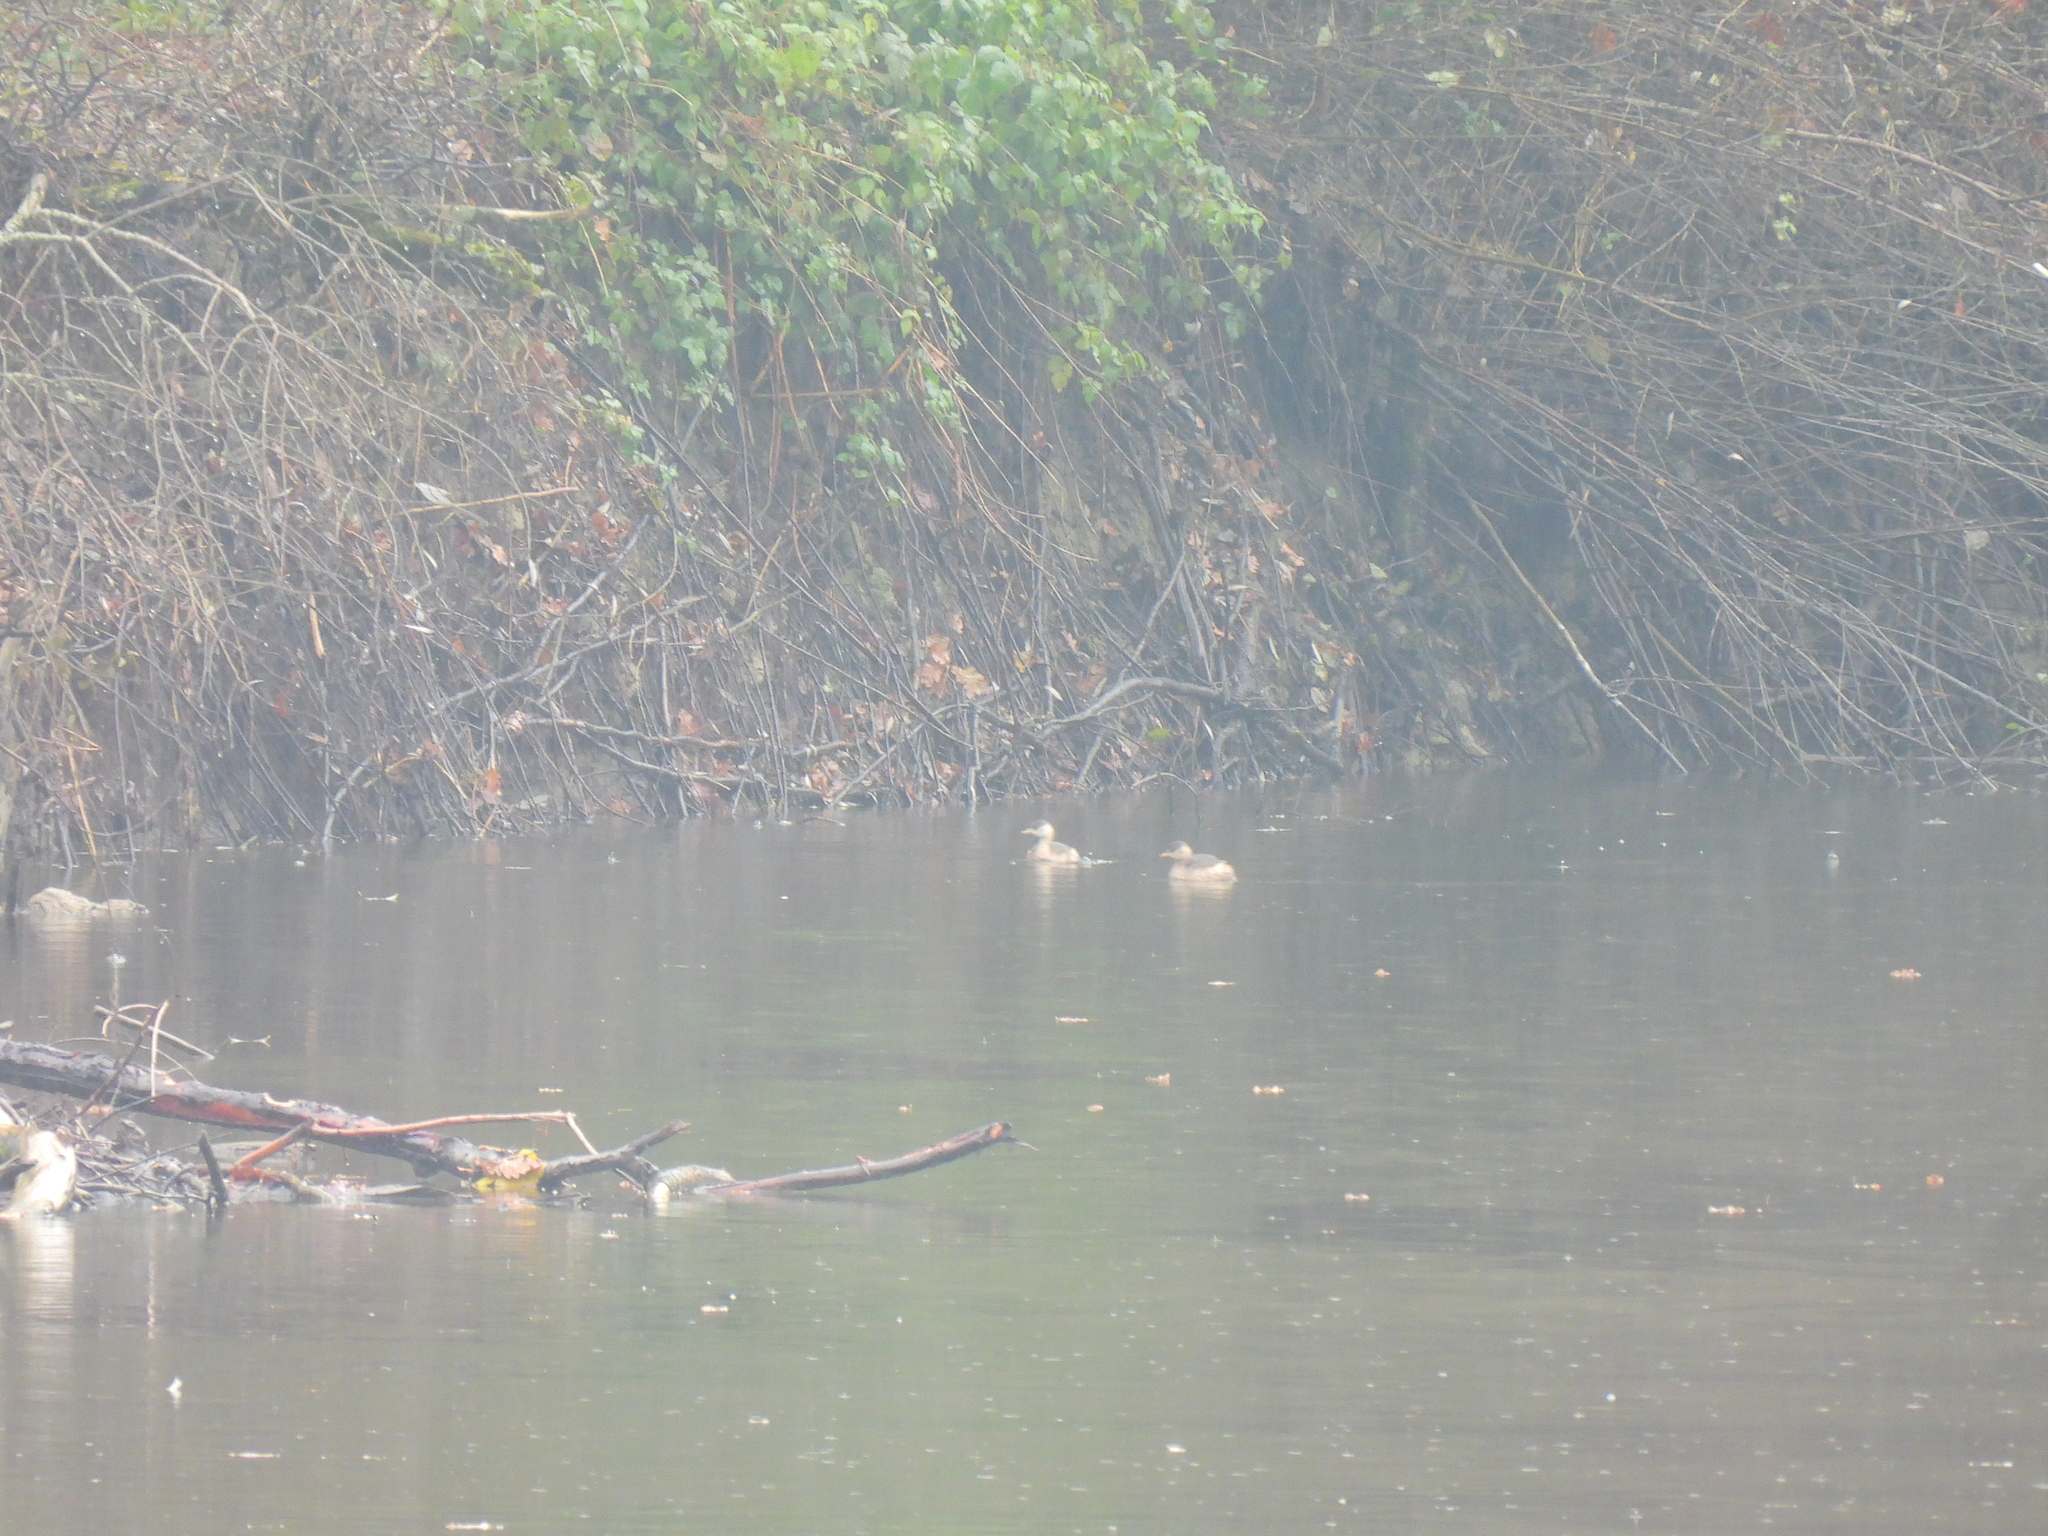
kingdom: Animalia
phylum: Chordata
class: Aves
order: Podicipediformes
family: Podicipedidae
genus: Tachybaptus
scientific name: Tachybaptus ruficollis
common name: Little grebe
